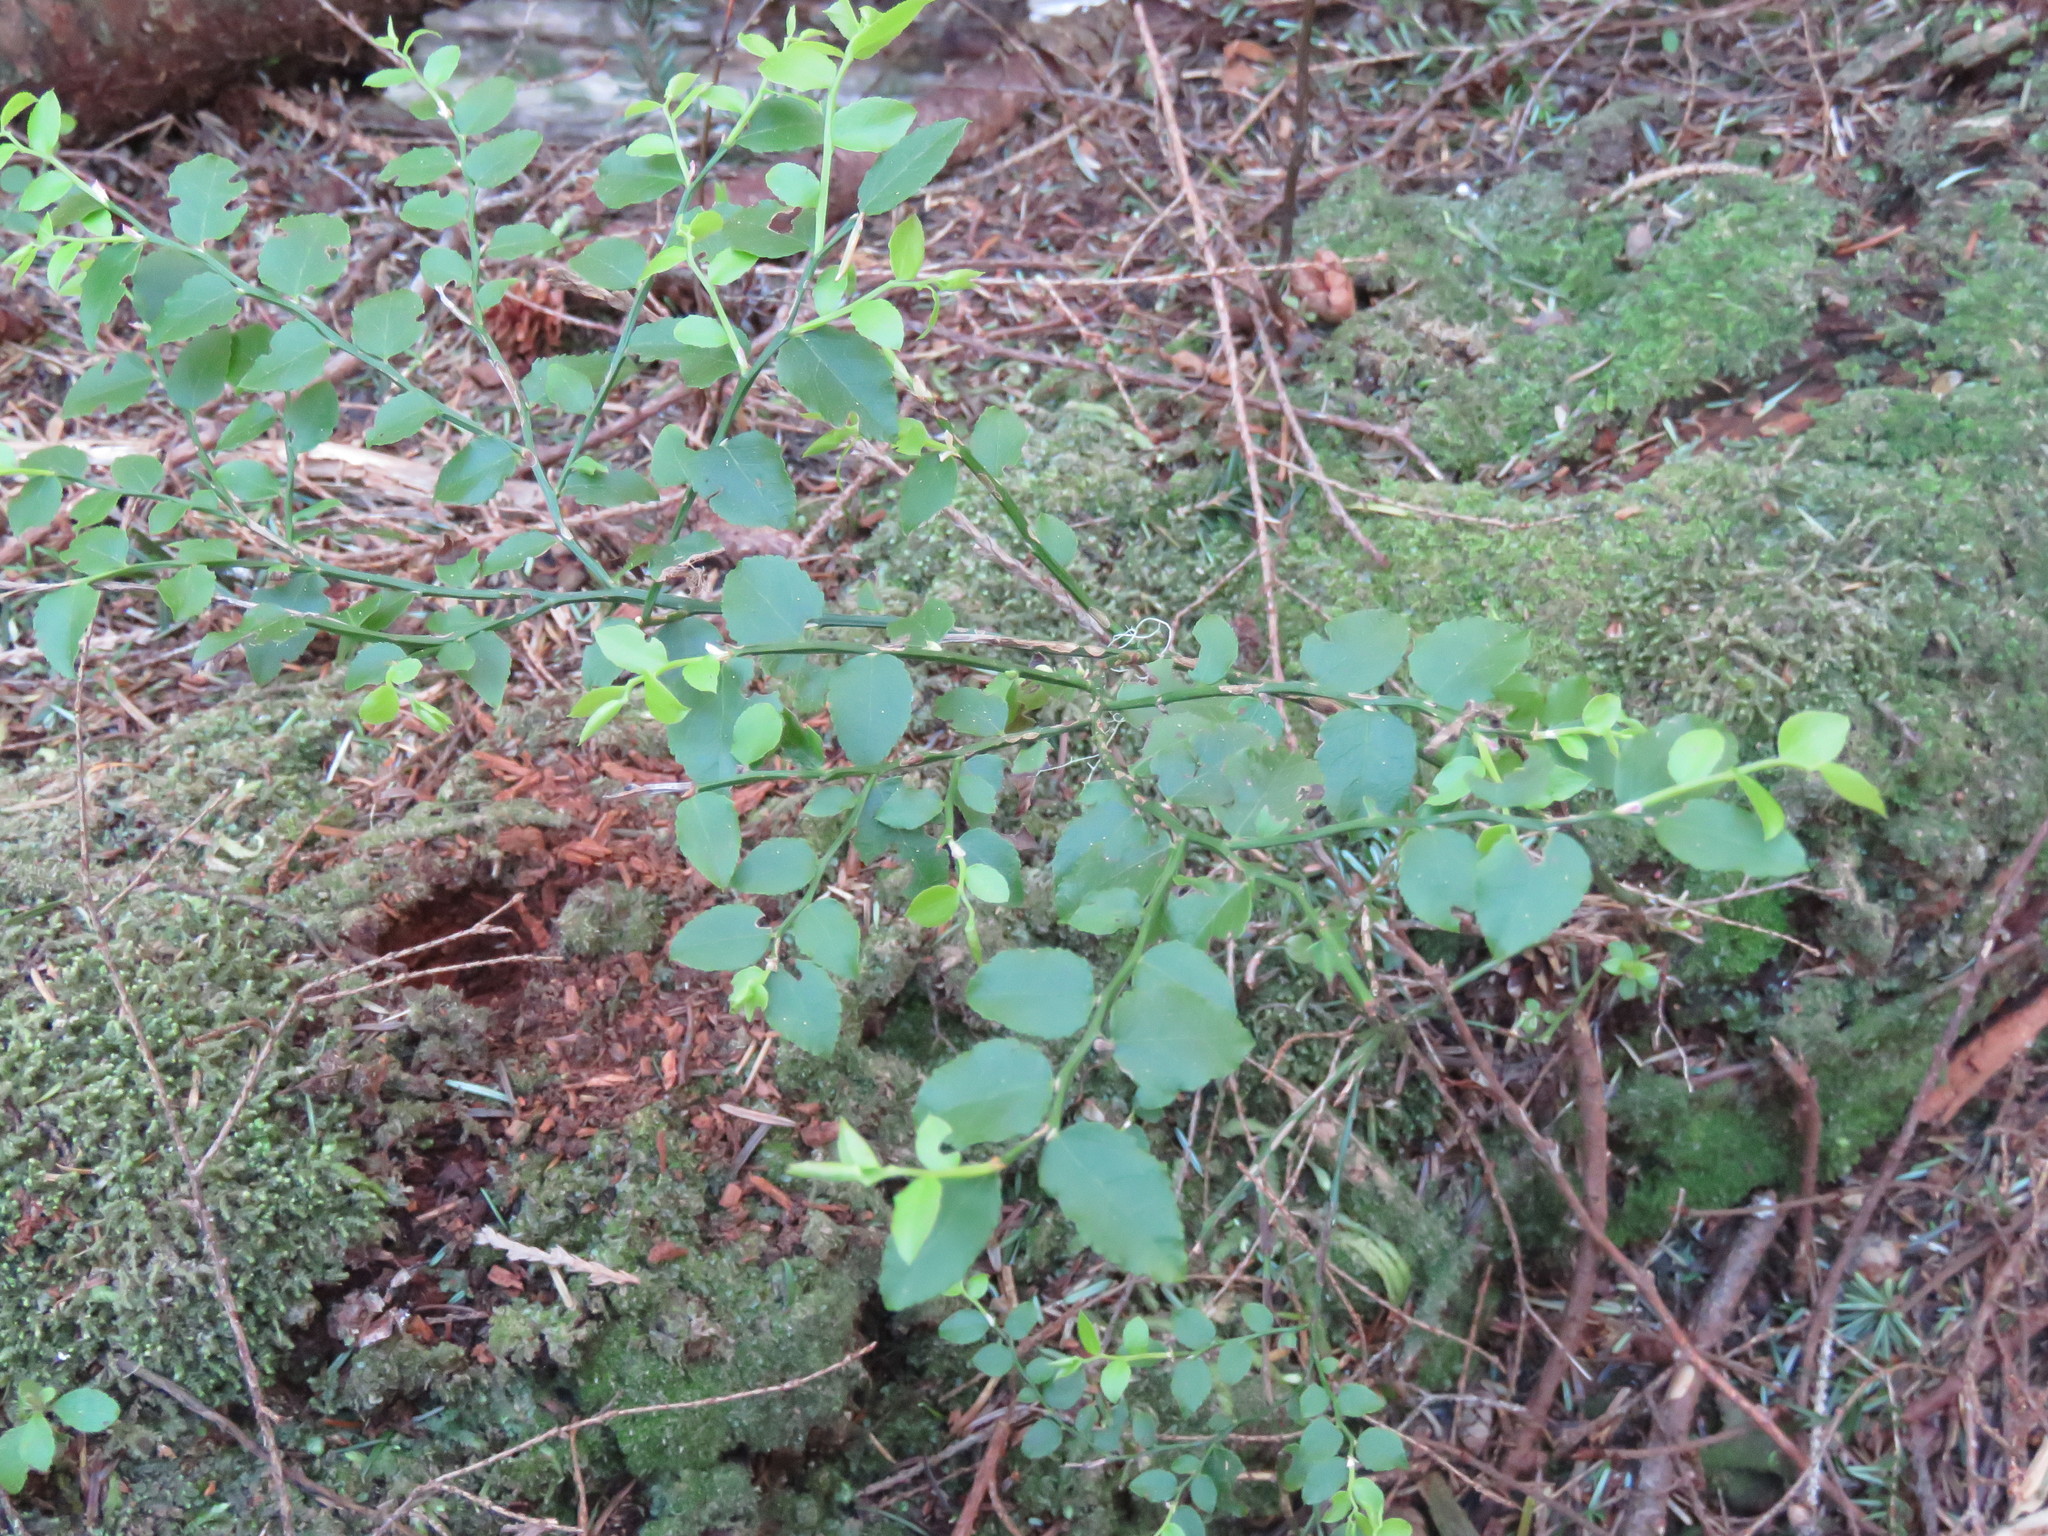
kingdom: Plantae
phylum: Tracheophyta
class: Magnoliopsida
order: Ericales
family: Ericaceae
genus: Vaccinium
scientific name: Vaccinium parvifolium
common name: Red-huckleberry
